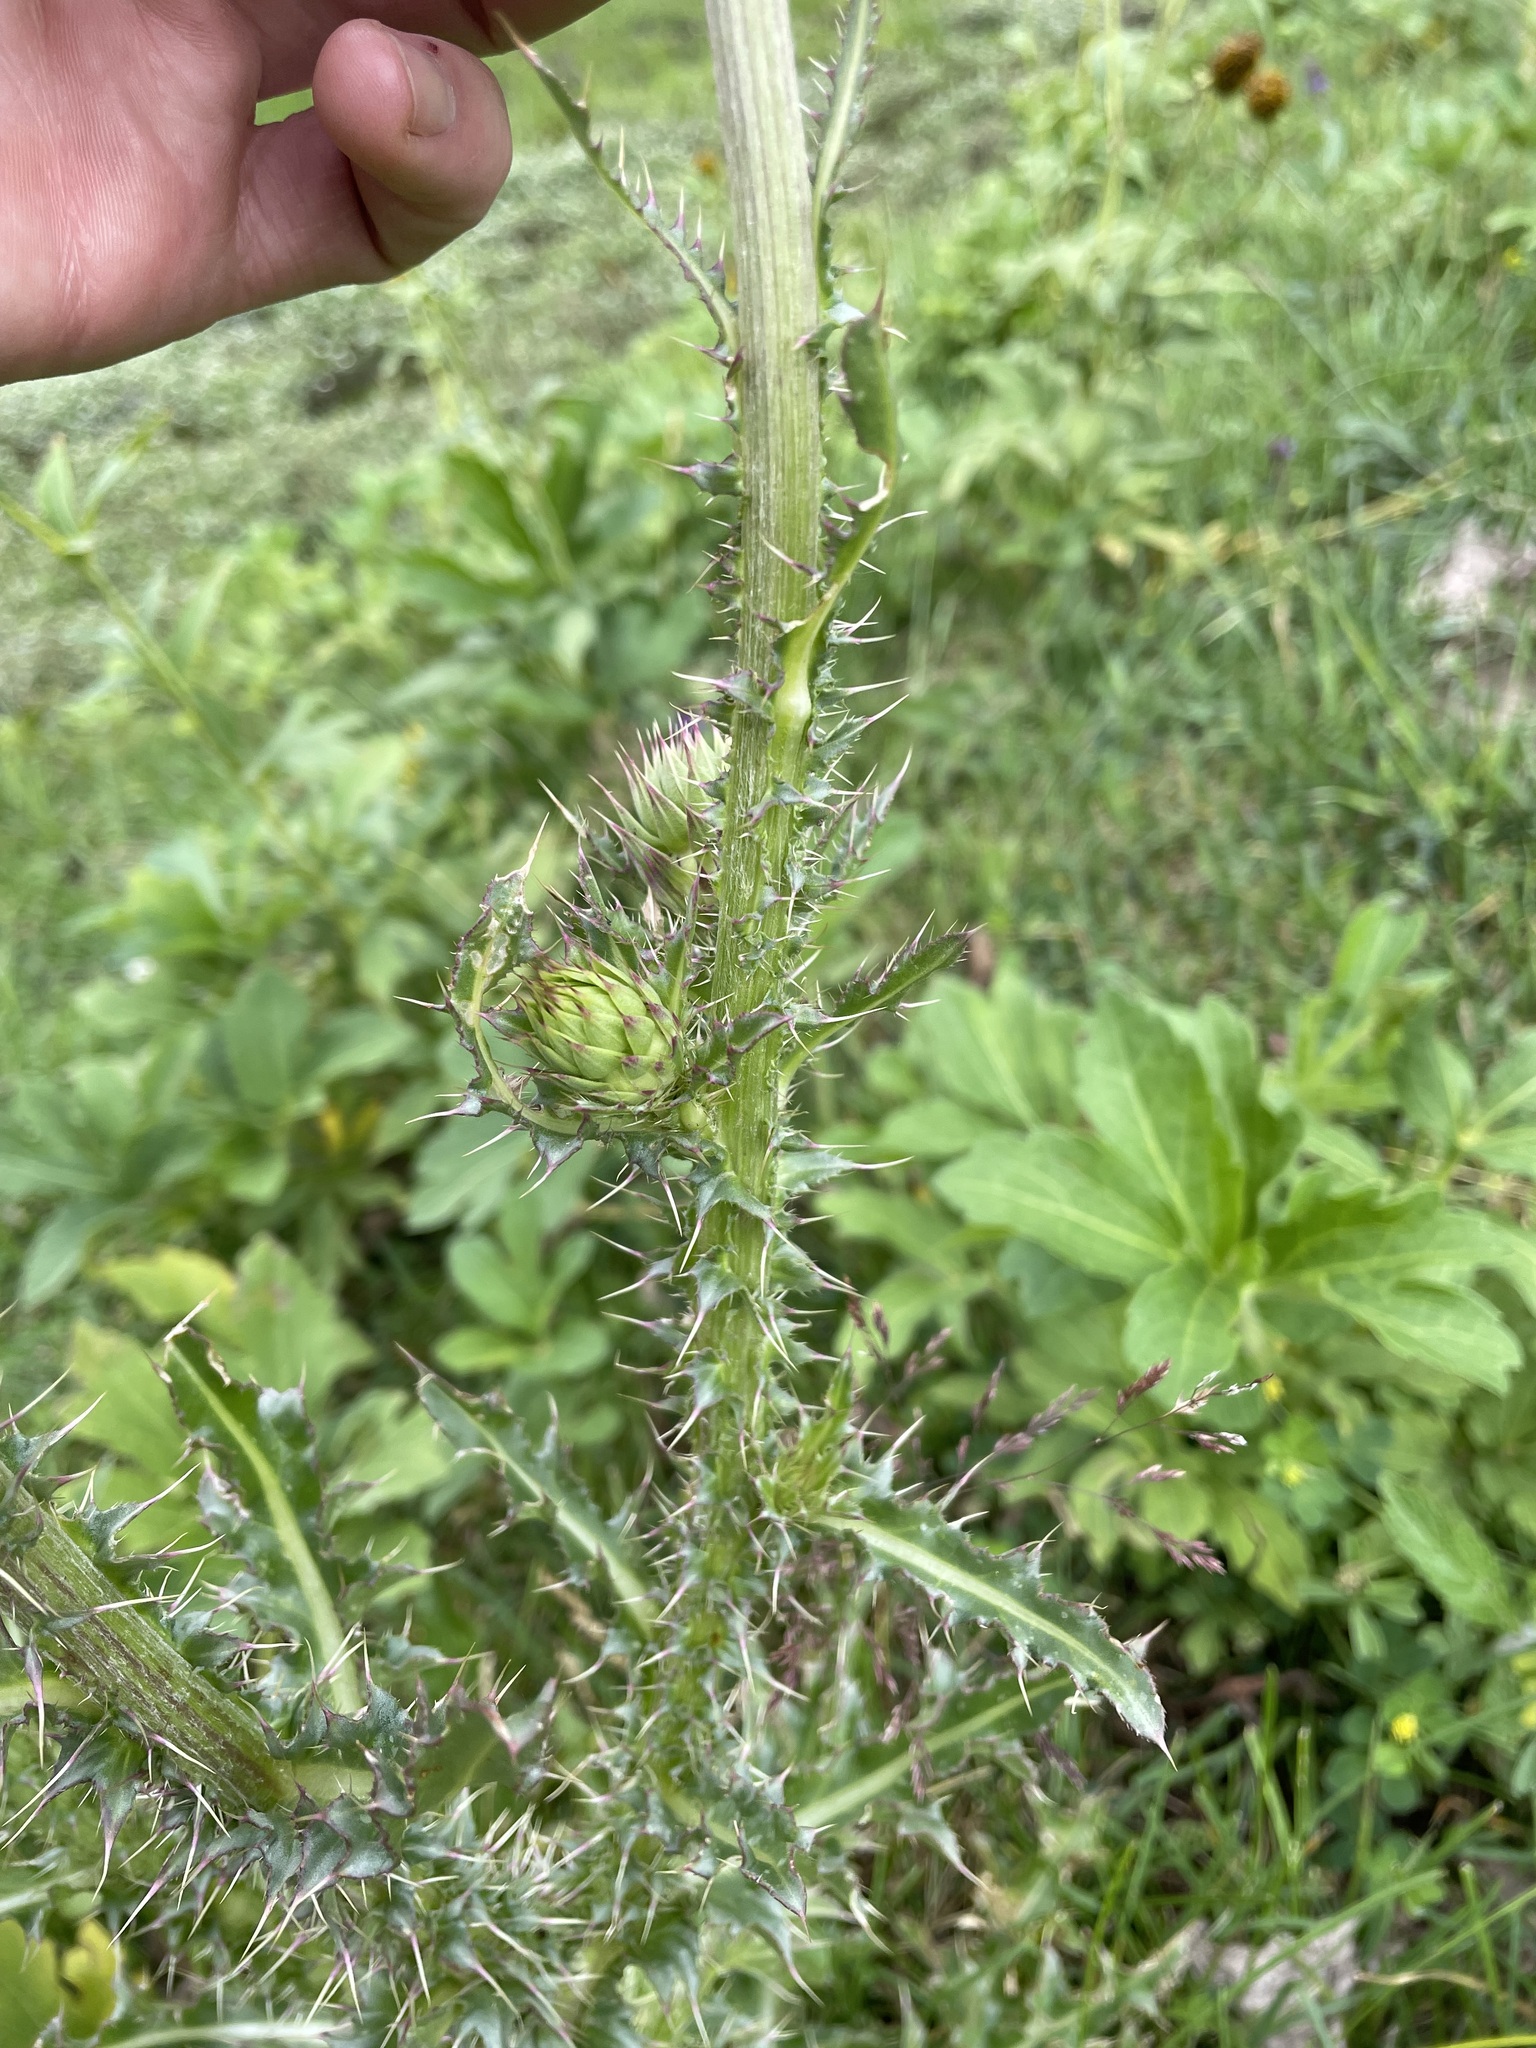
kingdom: Plantae
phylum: Tracheophyta
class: Magnoliopsida
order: Asterales
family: Asteraceae
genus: Carduus
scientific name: Carduus nutans
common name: Musk thistle
